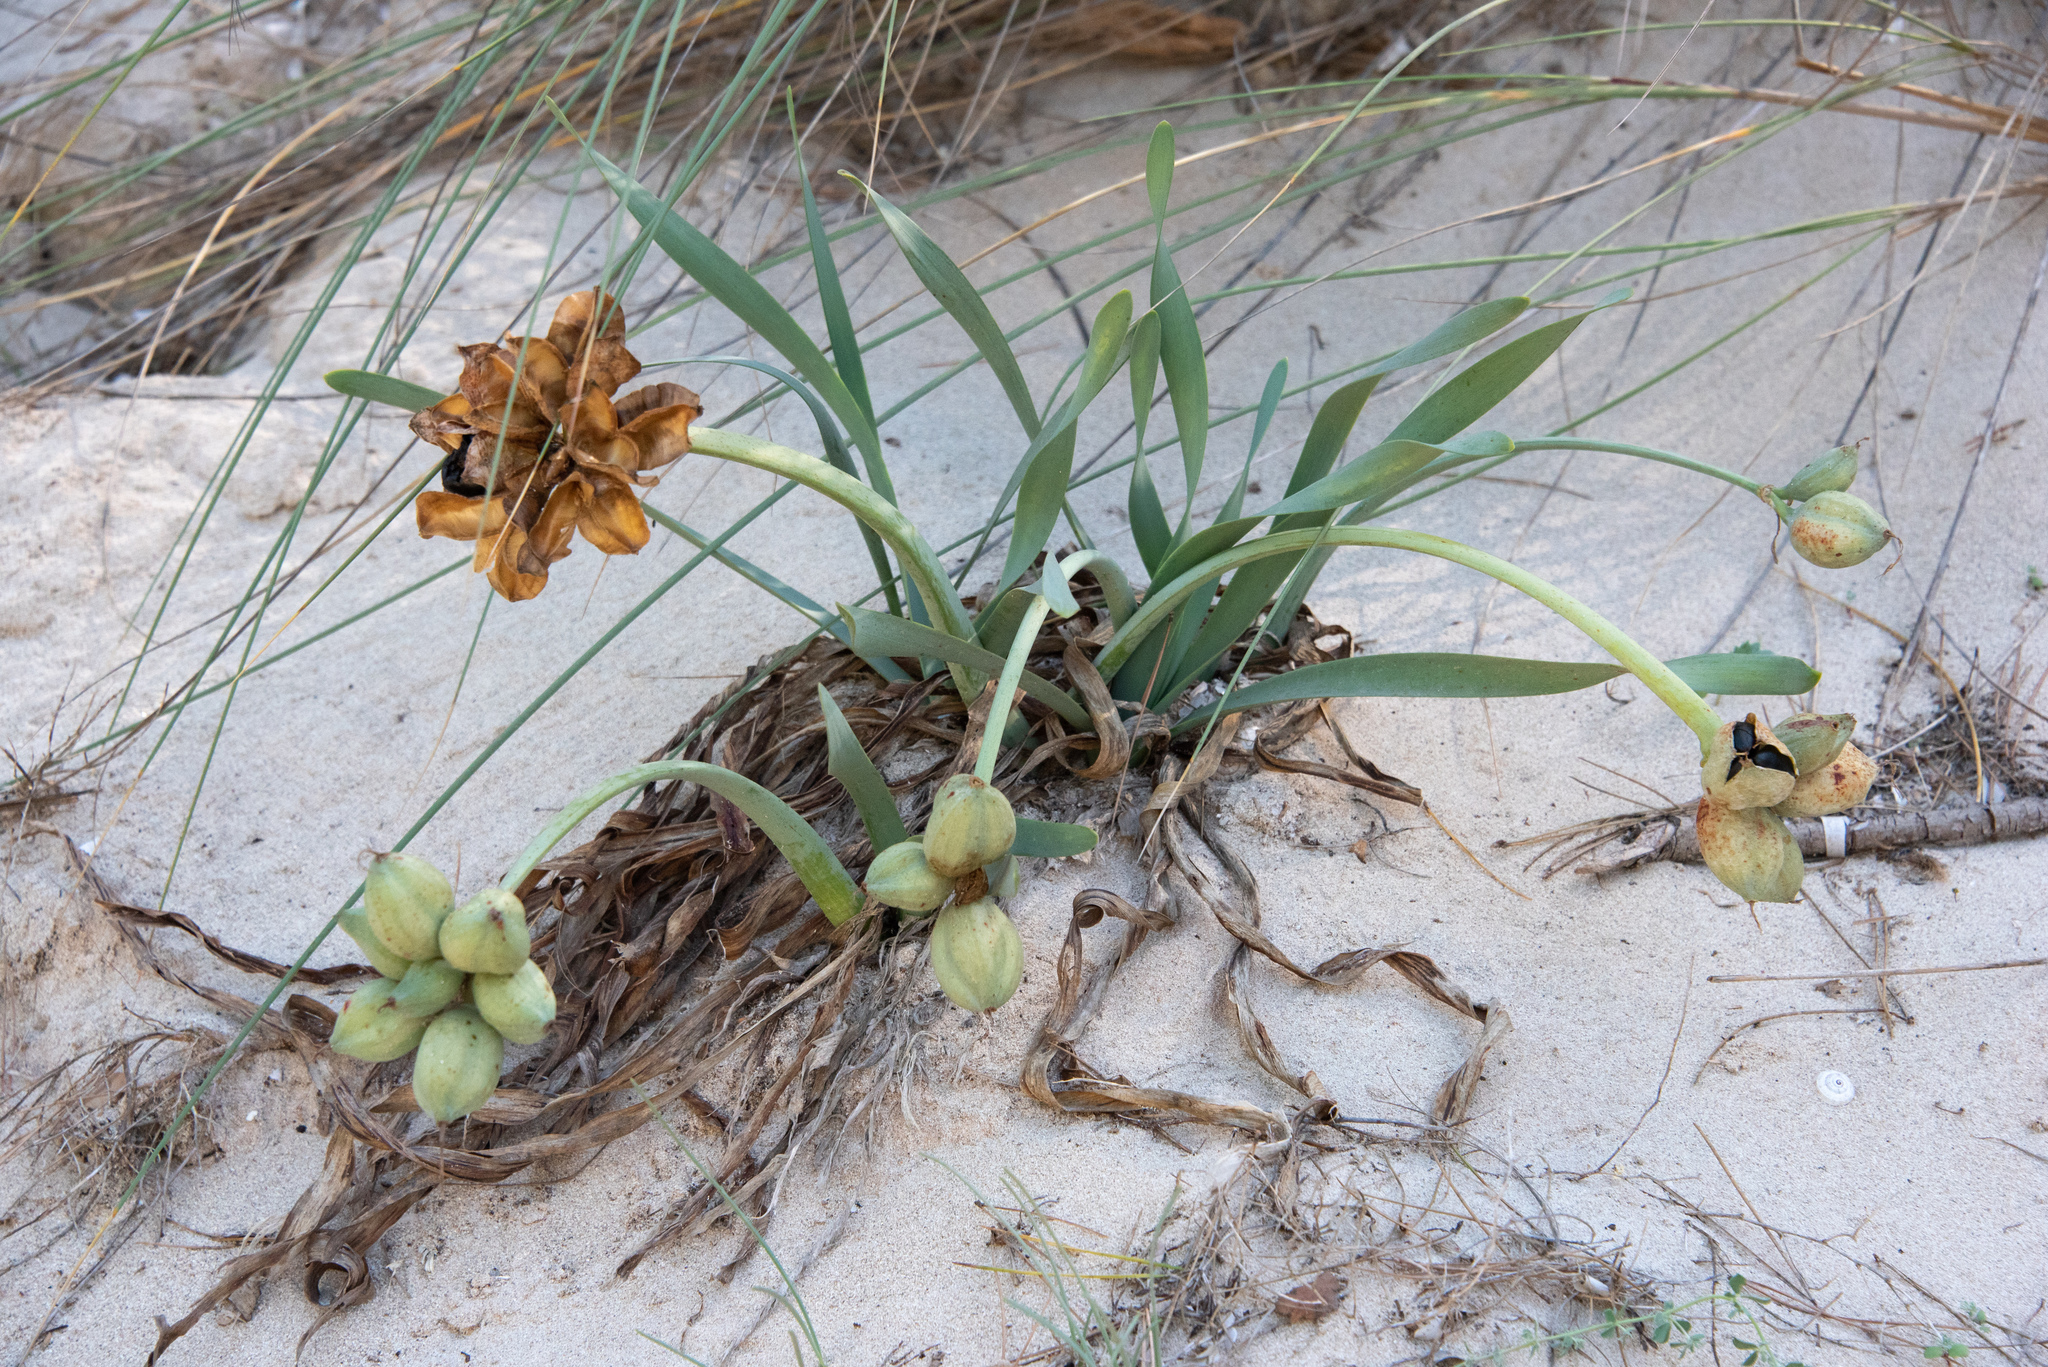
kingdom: Plantae
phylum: Tracheophyta
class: Liliopsida
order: Asparagales
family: Amaryllidaceae
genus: Pancratium
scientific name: Pancratium maritimum
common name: Sea-daffodil
